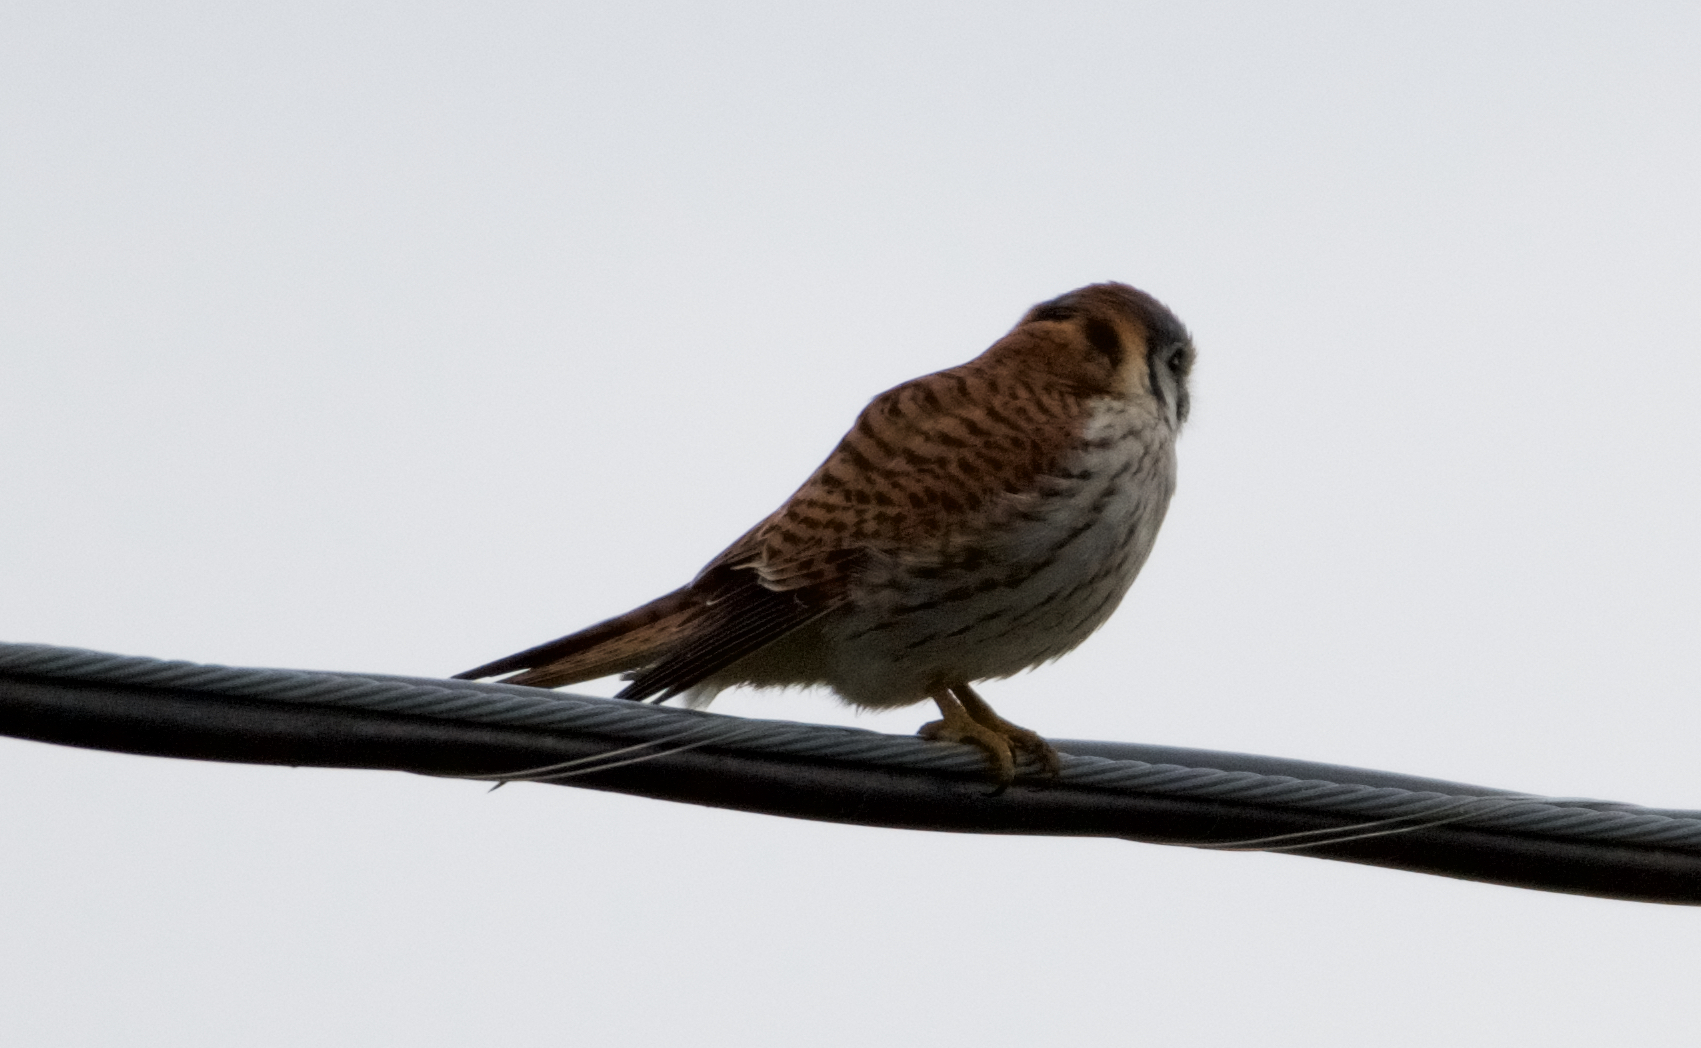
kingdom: Animalia
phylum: Chordata
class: Aves
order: Falconiformes
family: Falconidae
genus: Falco
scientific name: Falco sparverius
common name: American kestrel
